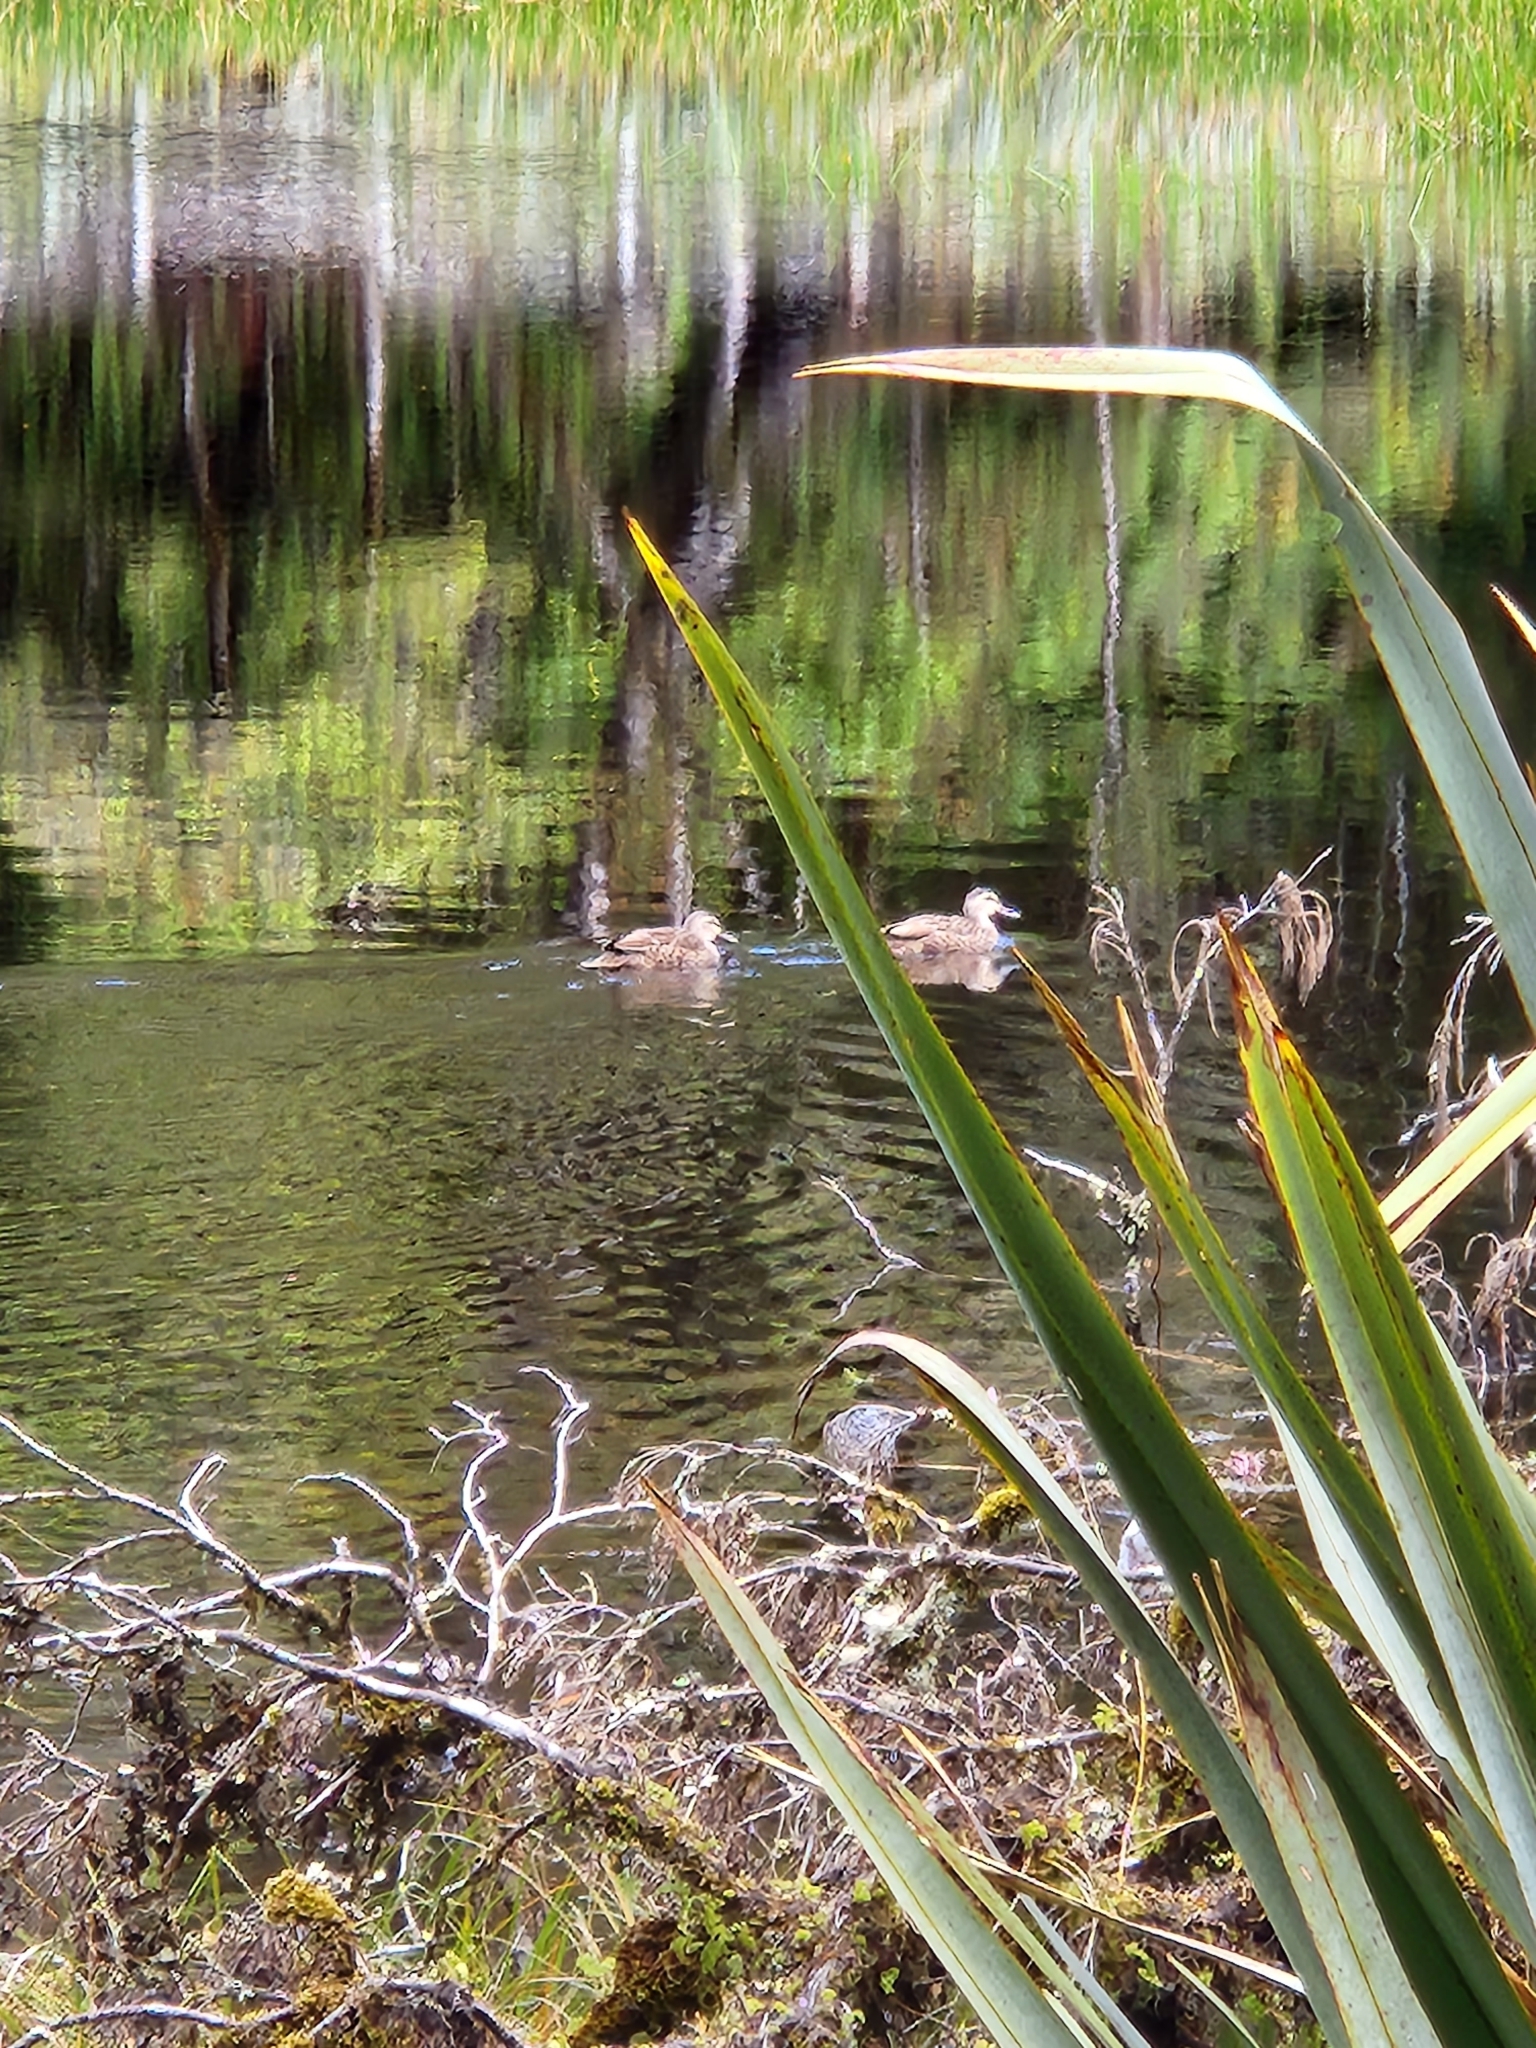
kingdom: Animalia
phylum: Chordata
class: Aves
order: Anseriformes
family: Anatidae
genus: Anas
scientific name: Anas
